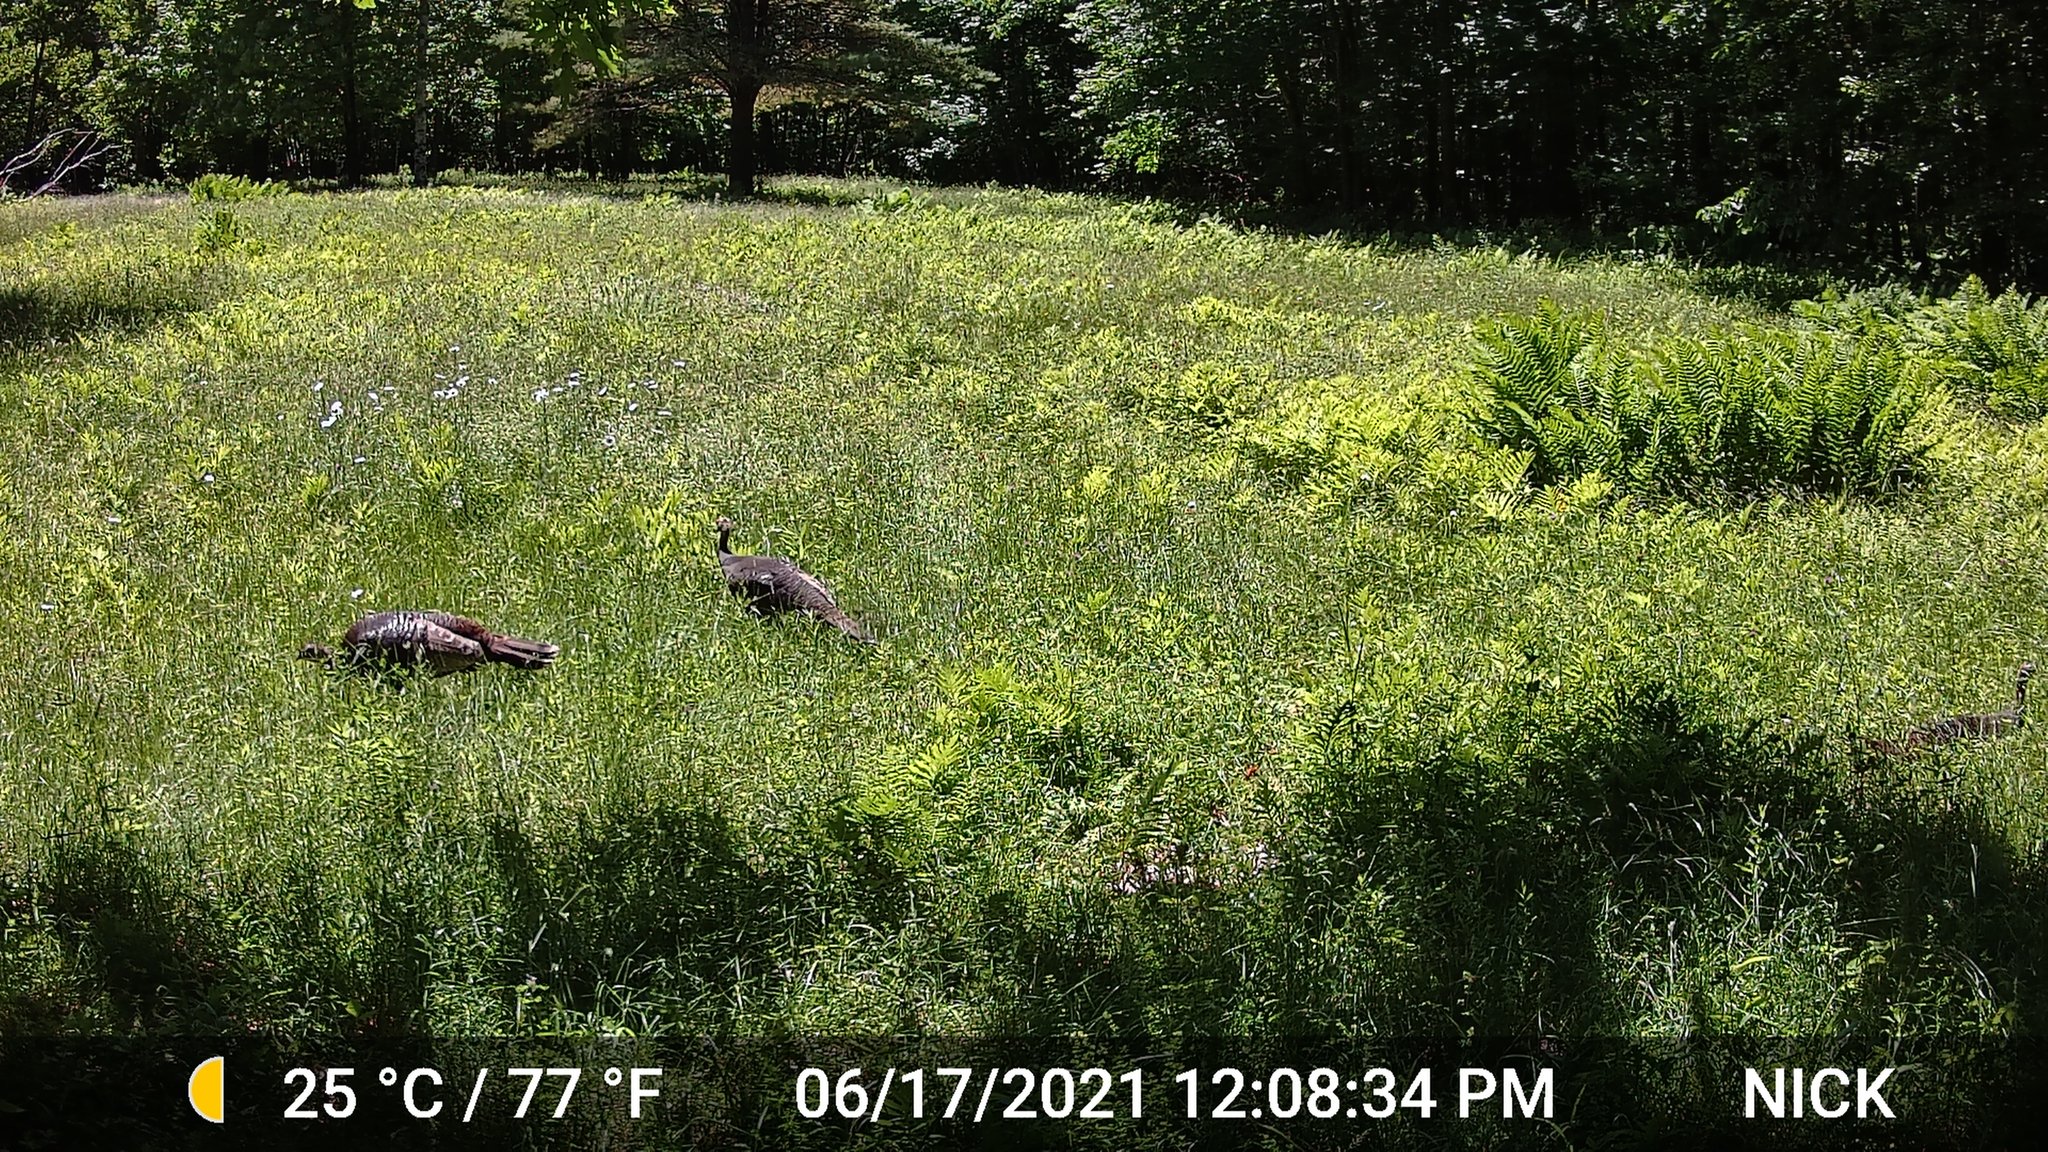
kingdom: Animalia
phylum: Chordata
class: Aves
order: Galliformes
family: Phasianidae
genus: Meleagris
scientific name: Meleagris gallopavo
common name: Wild turkey
